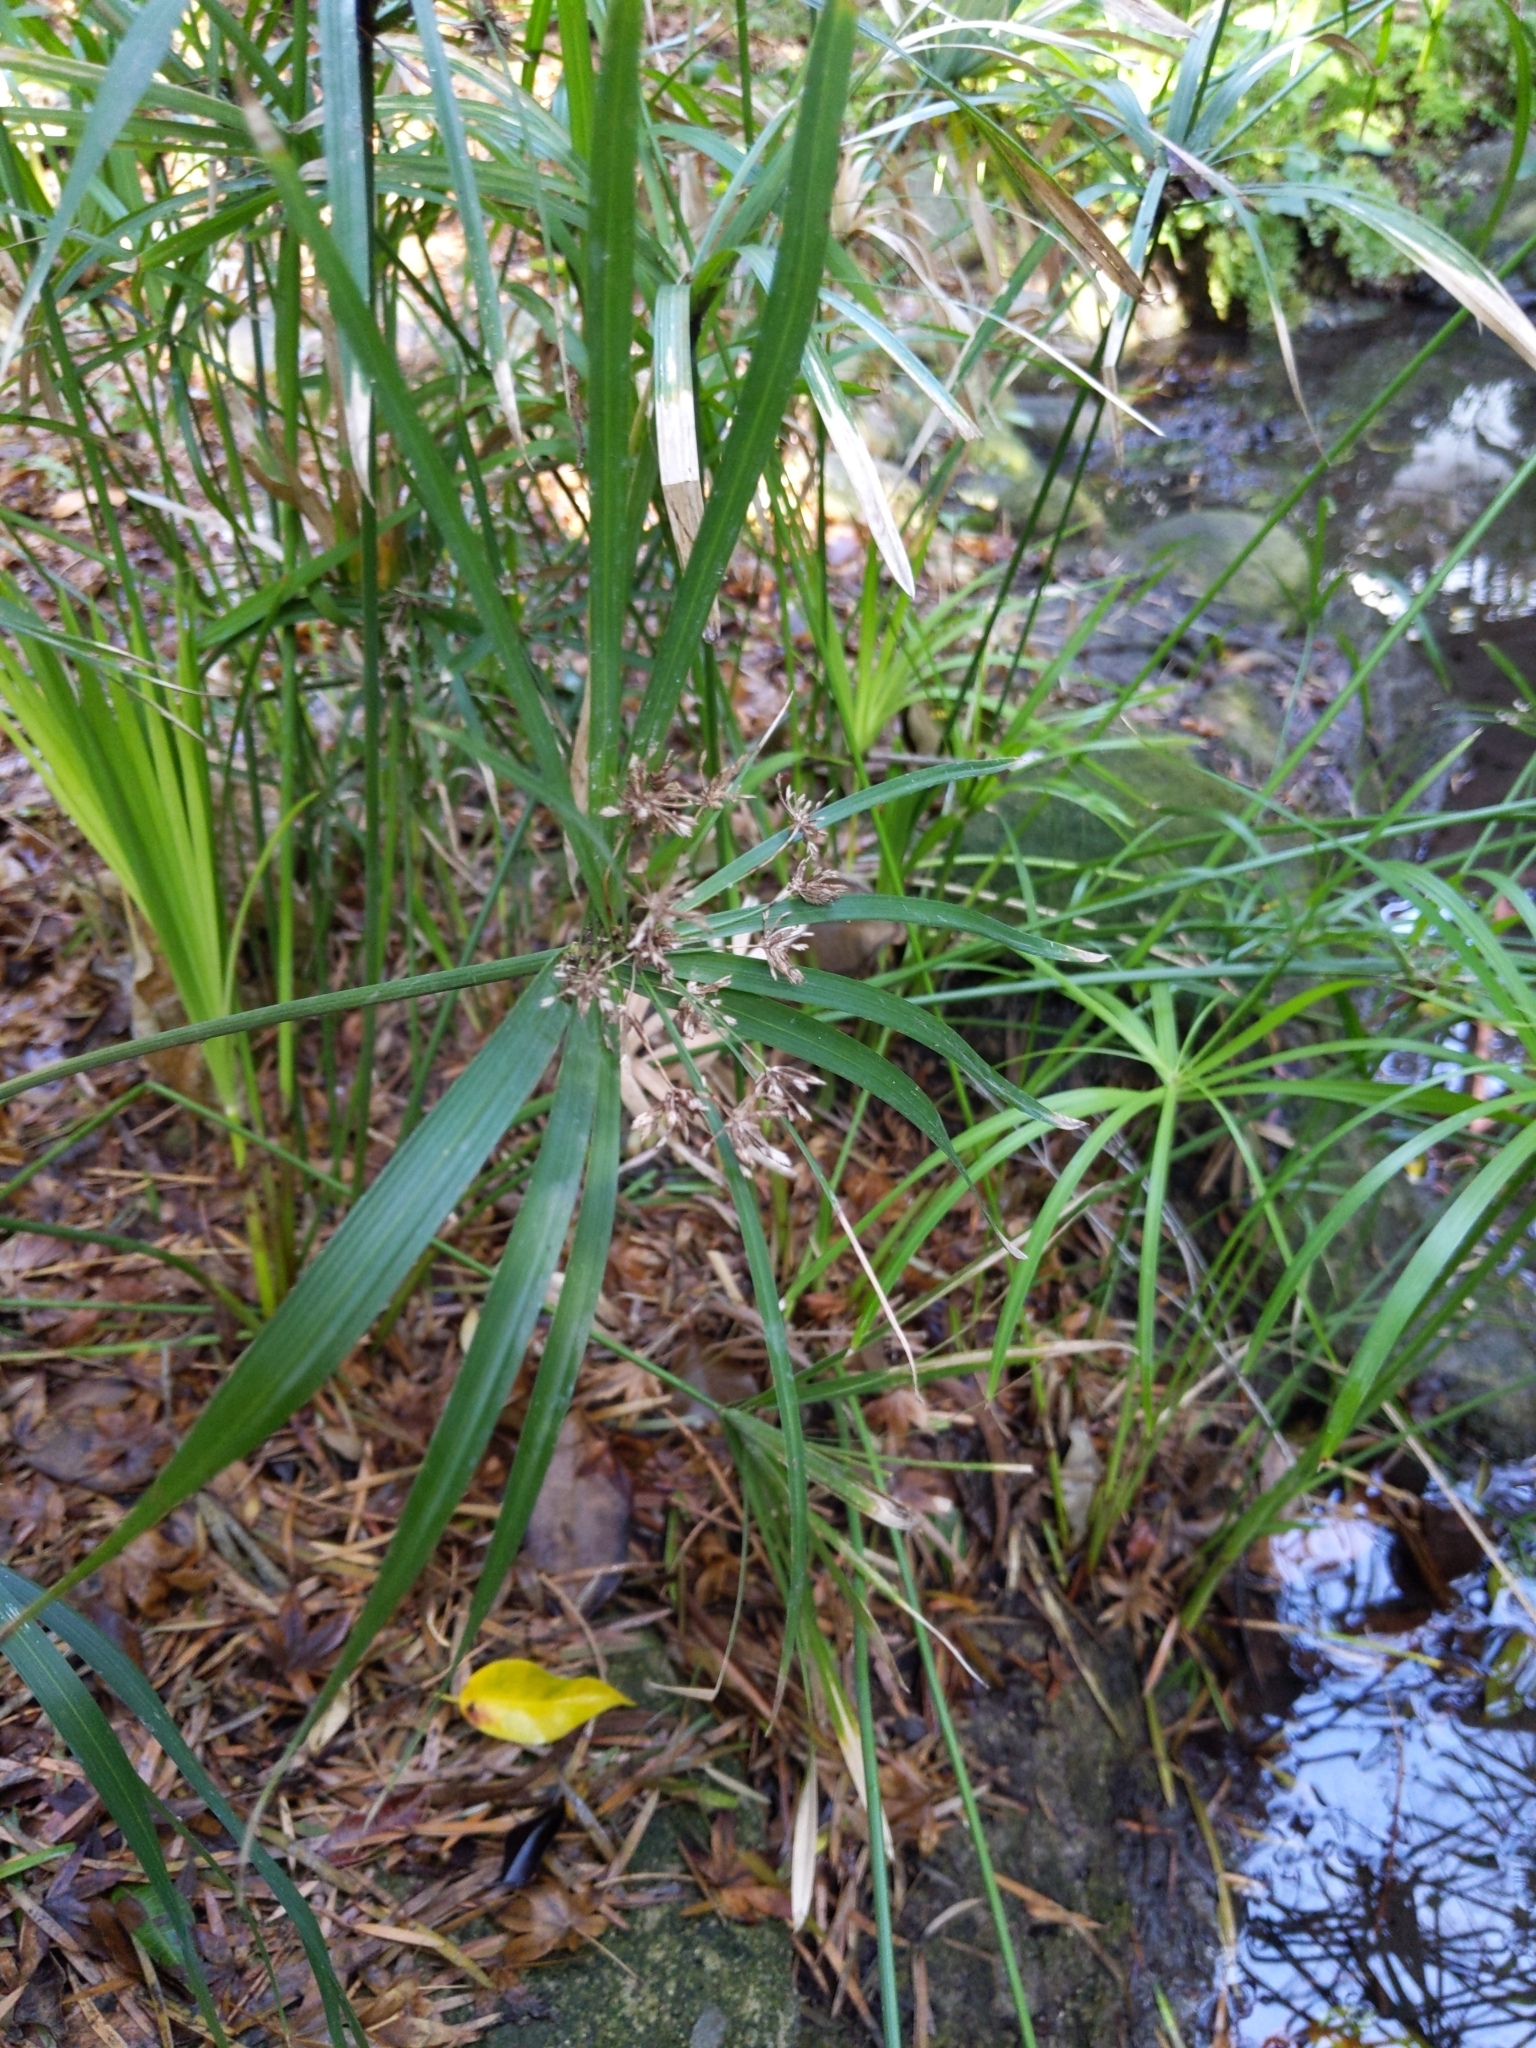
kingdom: Plantae
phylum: Tracheophyta
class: Liliopsida
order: Poales
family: Cyperaceae
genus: Cyperus
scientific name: Cyperus alternifolius
